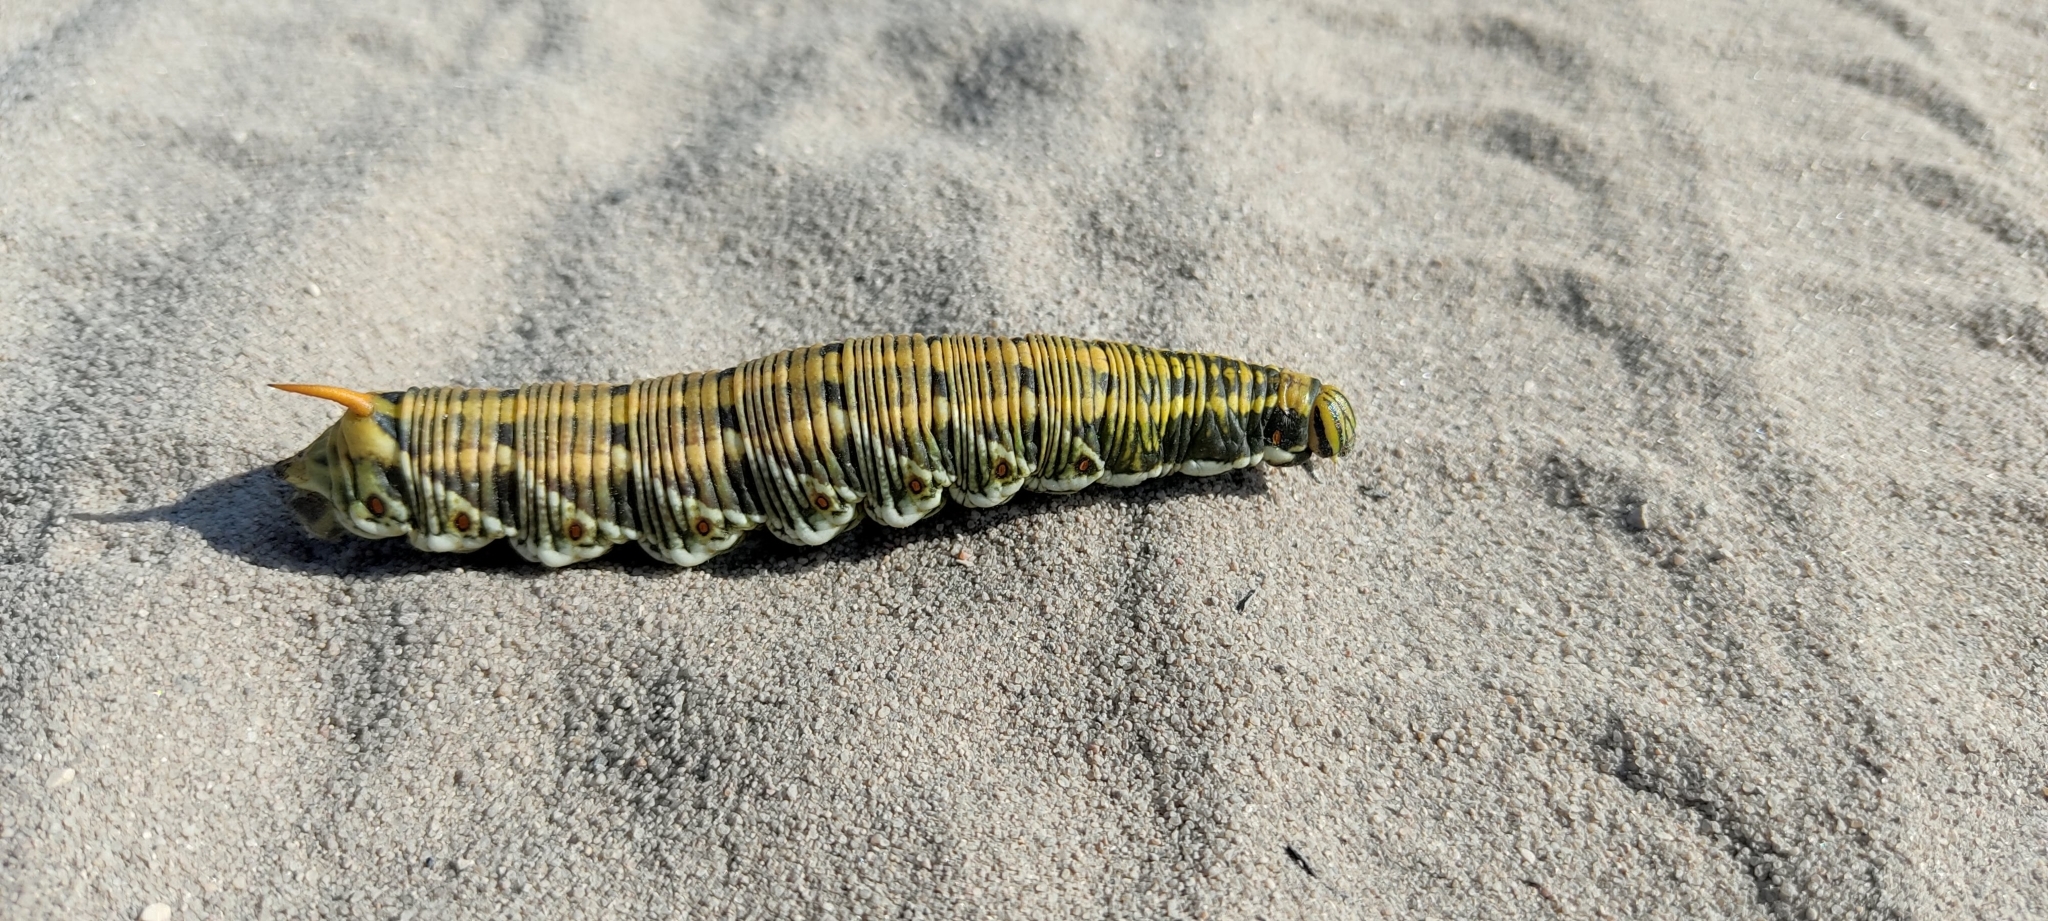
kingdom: Animalia
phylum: Arthropoda
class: Insecta
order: Lepidoptera
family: Sphingidae
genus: Agrius
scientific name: Agrius convolvuli
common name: Convolvulus hawkmoth
